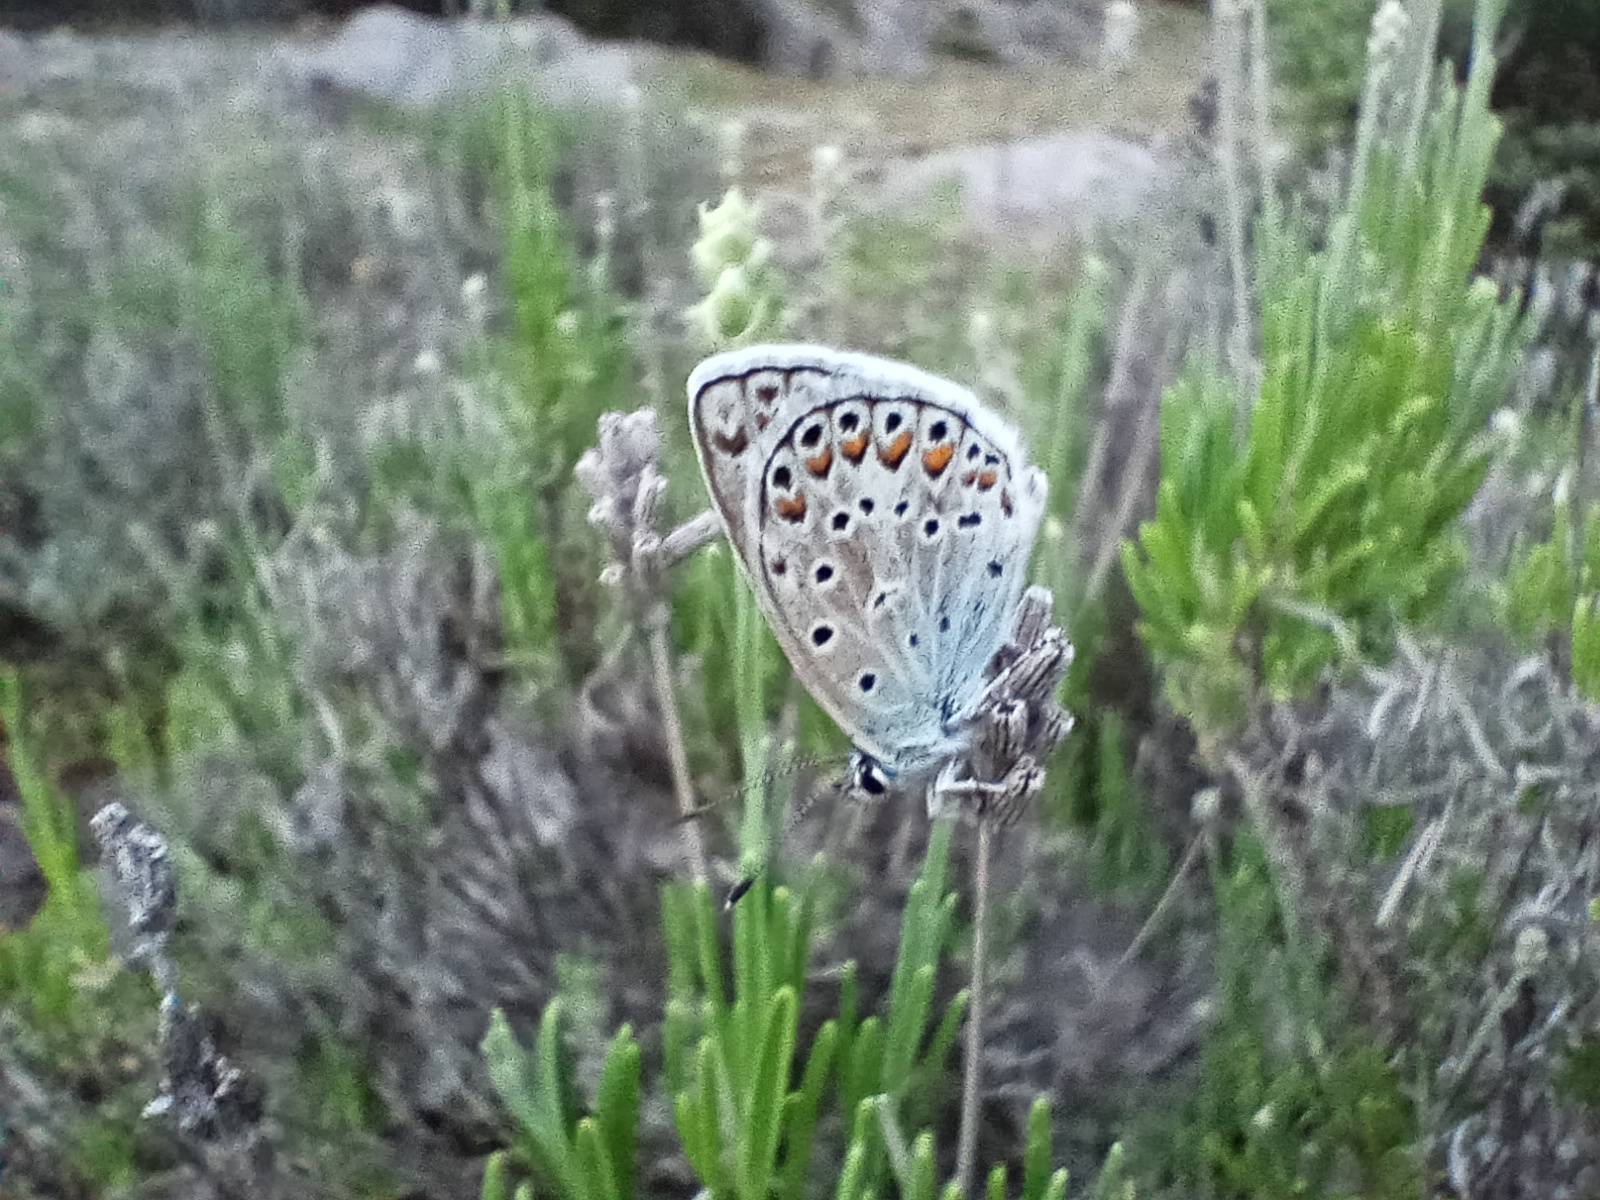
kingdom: Animalia
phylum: Arthropoda
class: Insecta
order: Lepidoptera
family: Lycaenidae
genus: Plebicula
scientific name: Plebicula escheri
